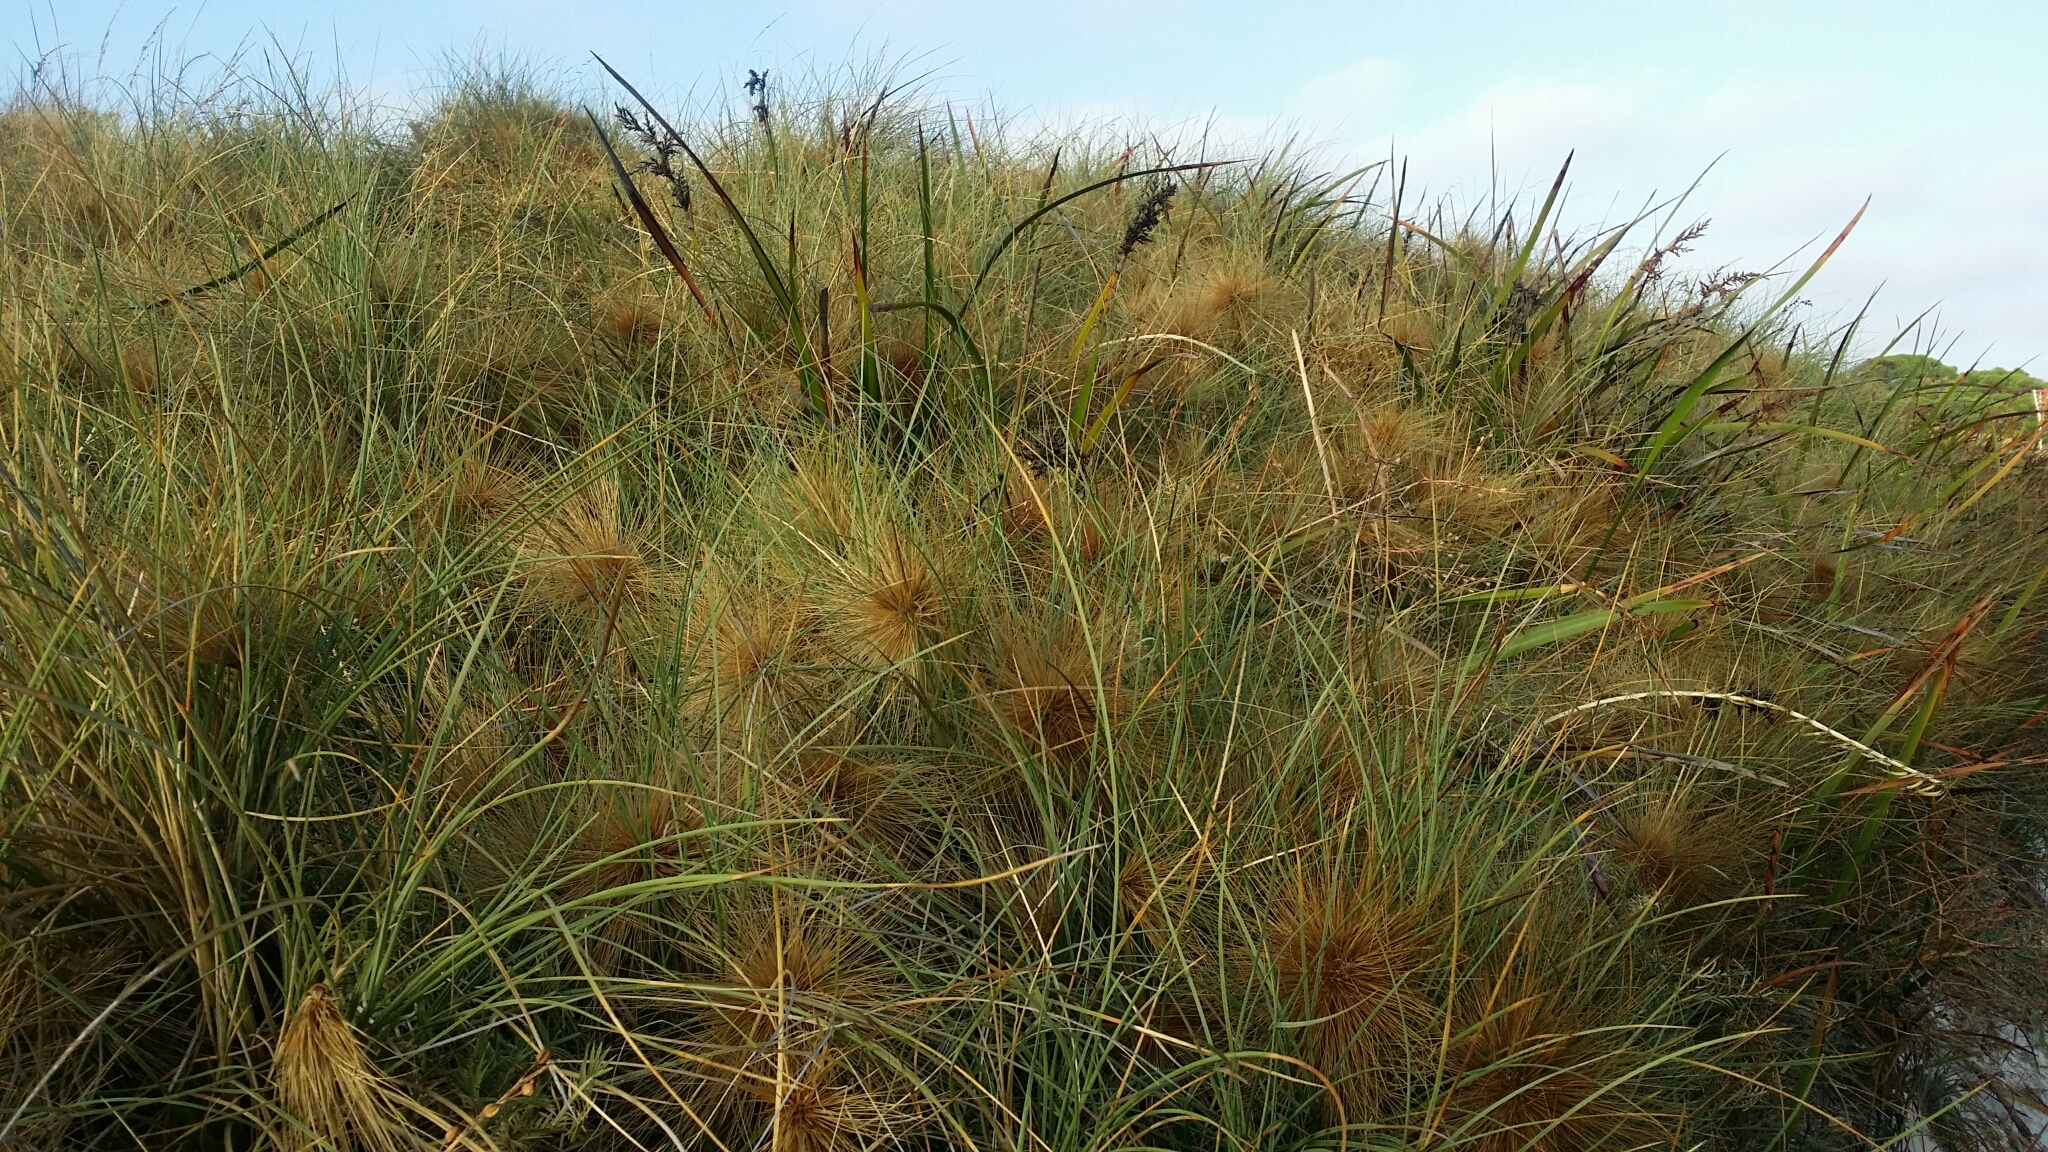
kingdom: Plantae
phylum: Tracheophyta
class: Liliopsida
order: Poales
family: Poaceae
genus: Spinifex
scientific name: Spinifex longifolius
